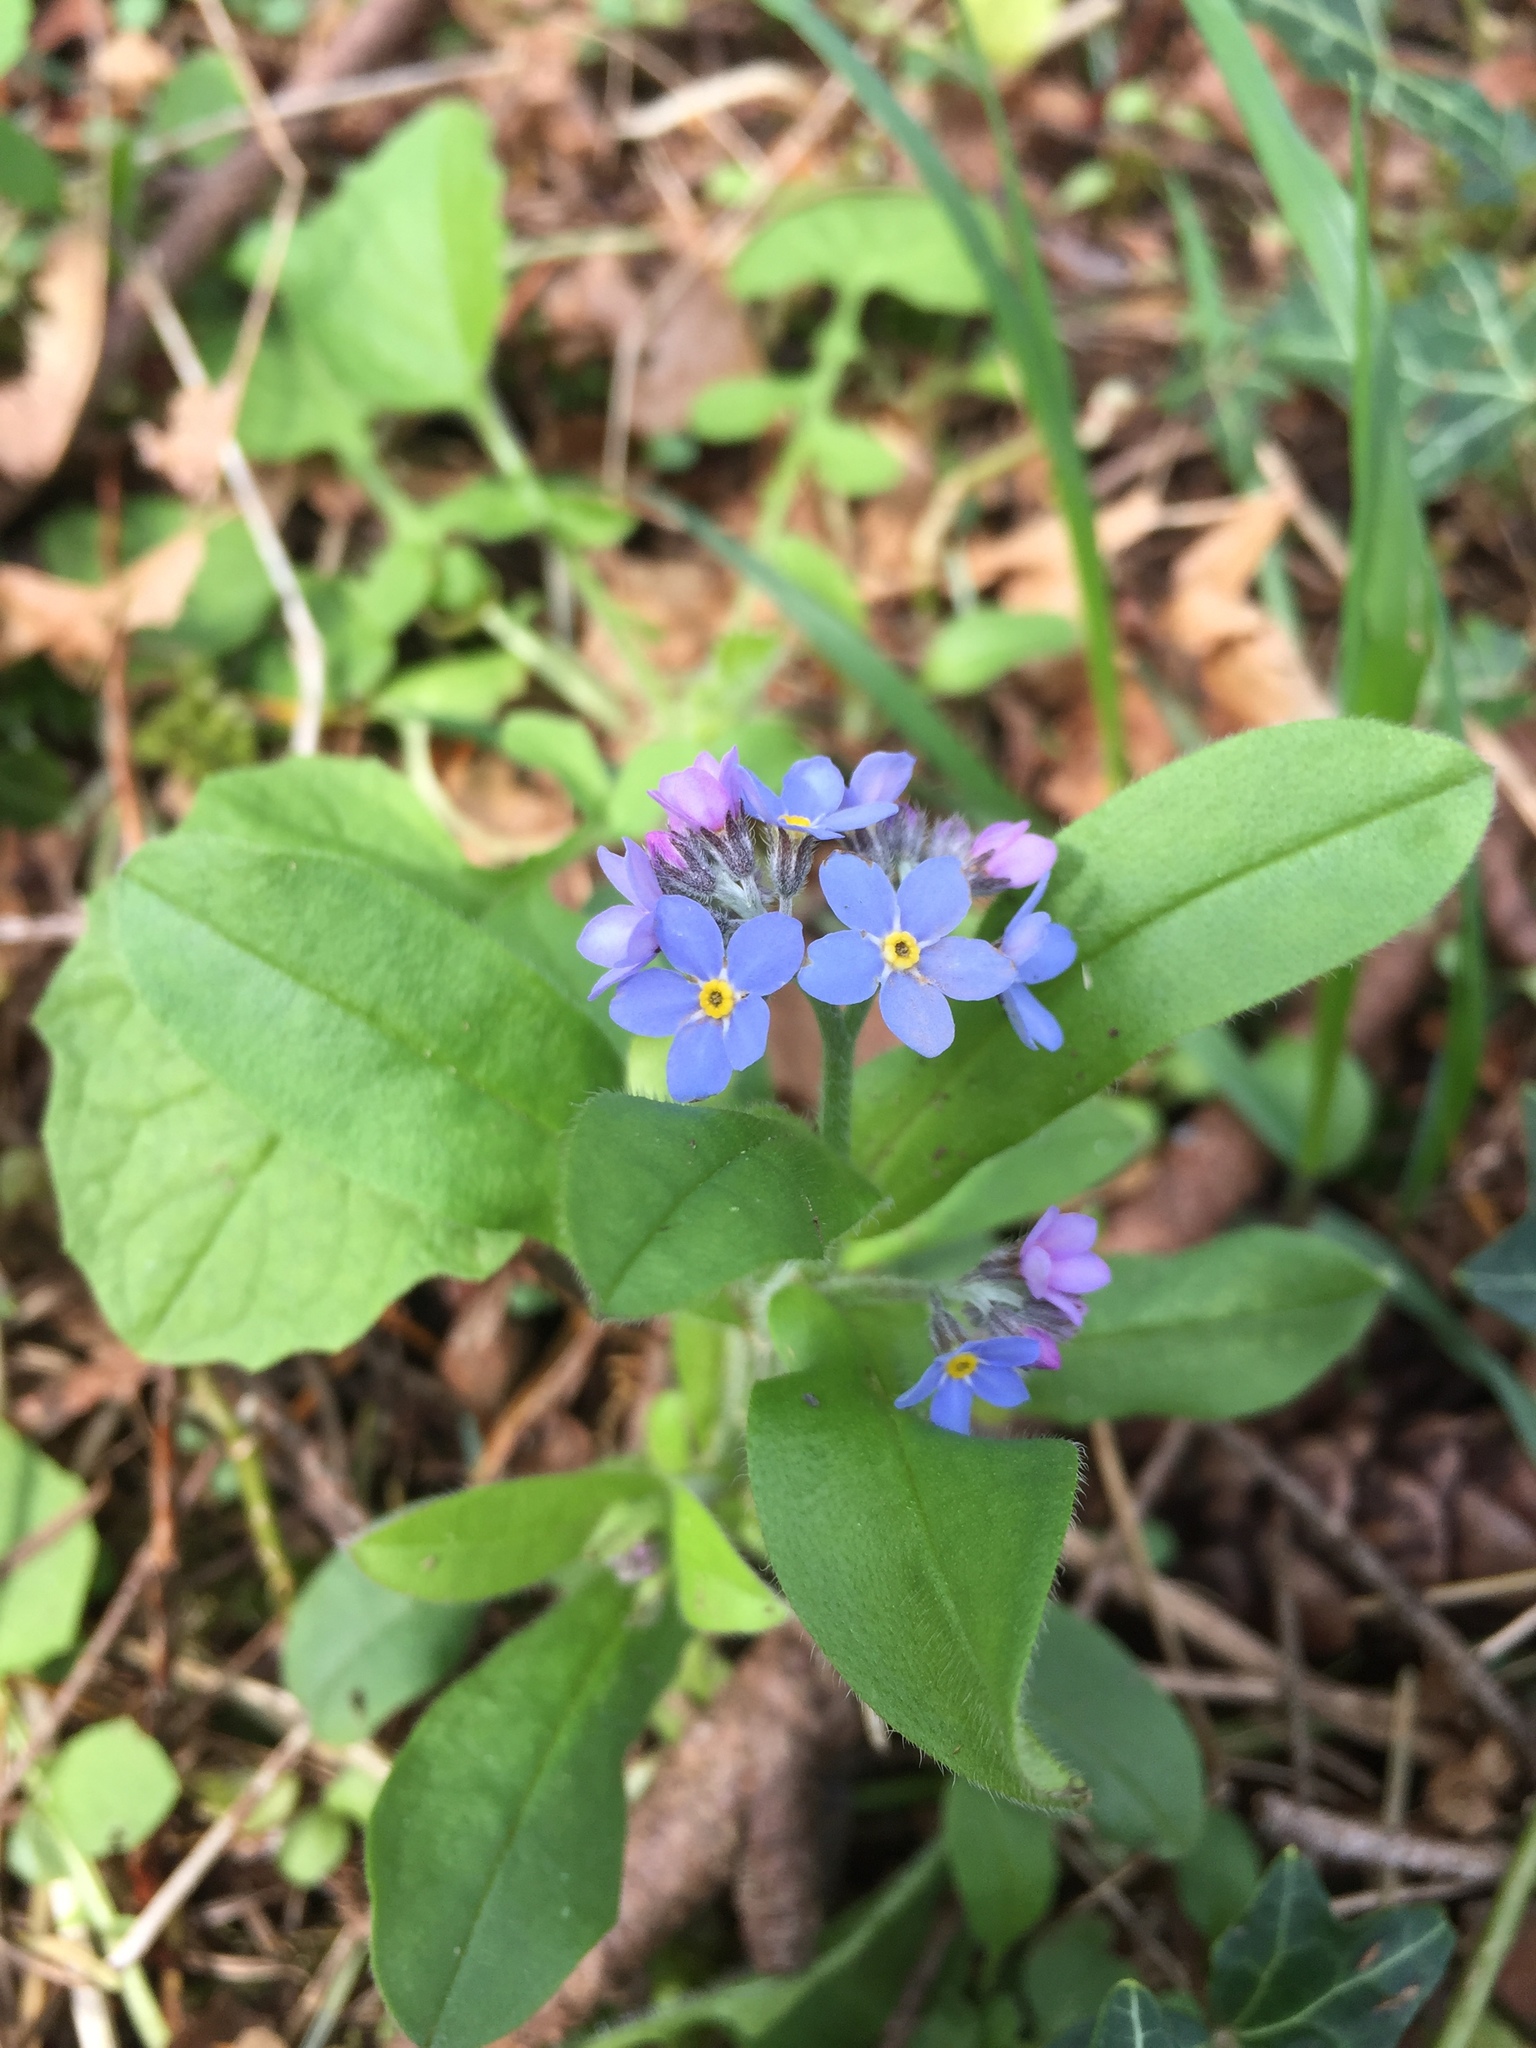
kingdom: Plantae
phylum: Tracheophyta
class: Magnoliopsida
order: Boraginales
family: Boraginaceae
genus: Myosotis
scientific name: Myosotis sylvatica
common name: Wood forget-me-not
